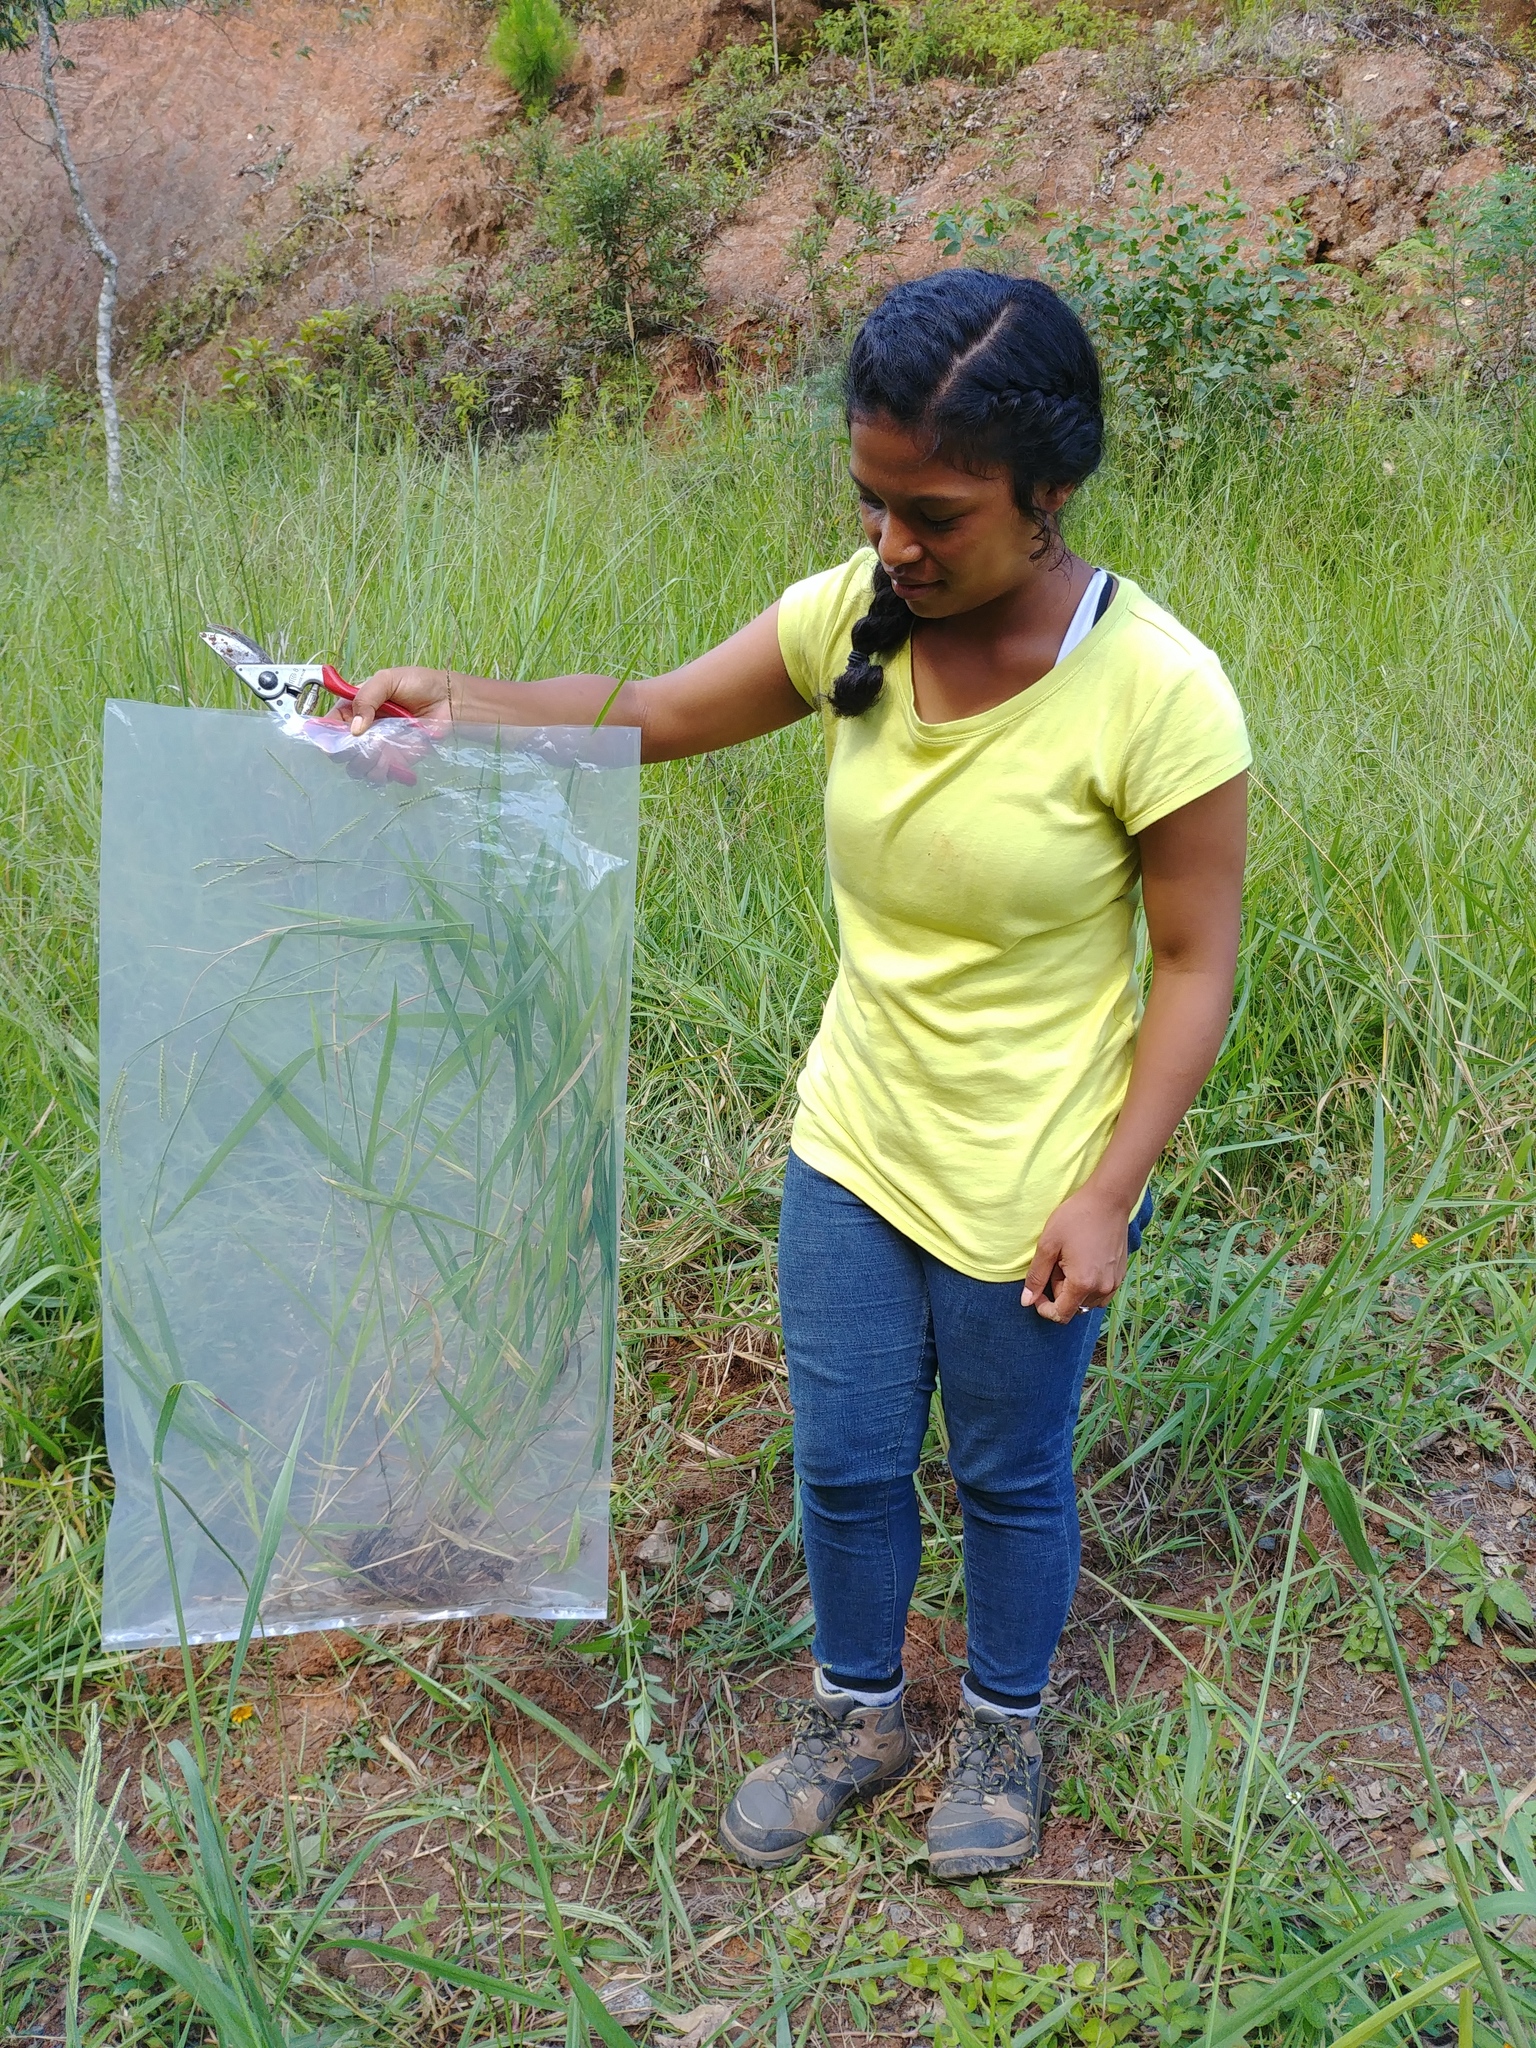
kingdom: Plantae
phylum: Tracheophyta
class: Liliopsida
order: Poales
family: Poaceae
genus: Urochloa
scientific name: Urochloa brizantha
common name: Palisade signalgrass
